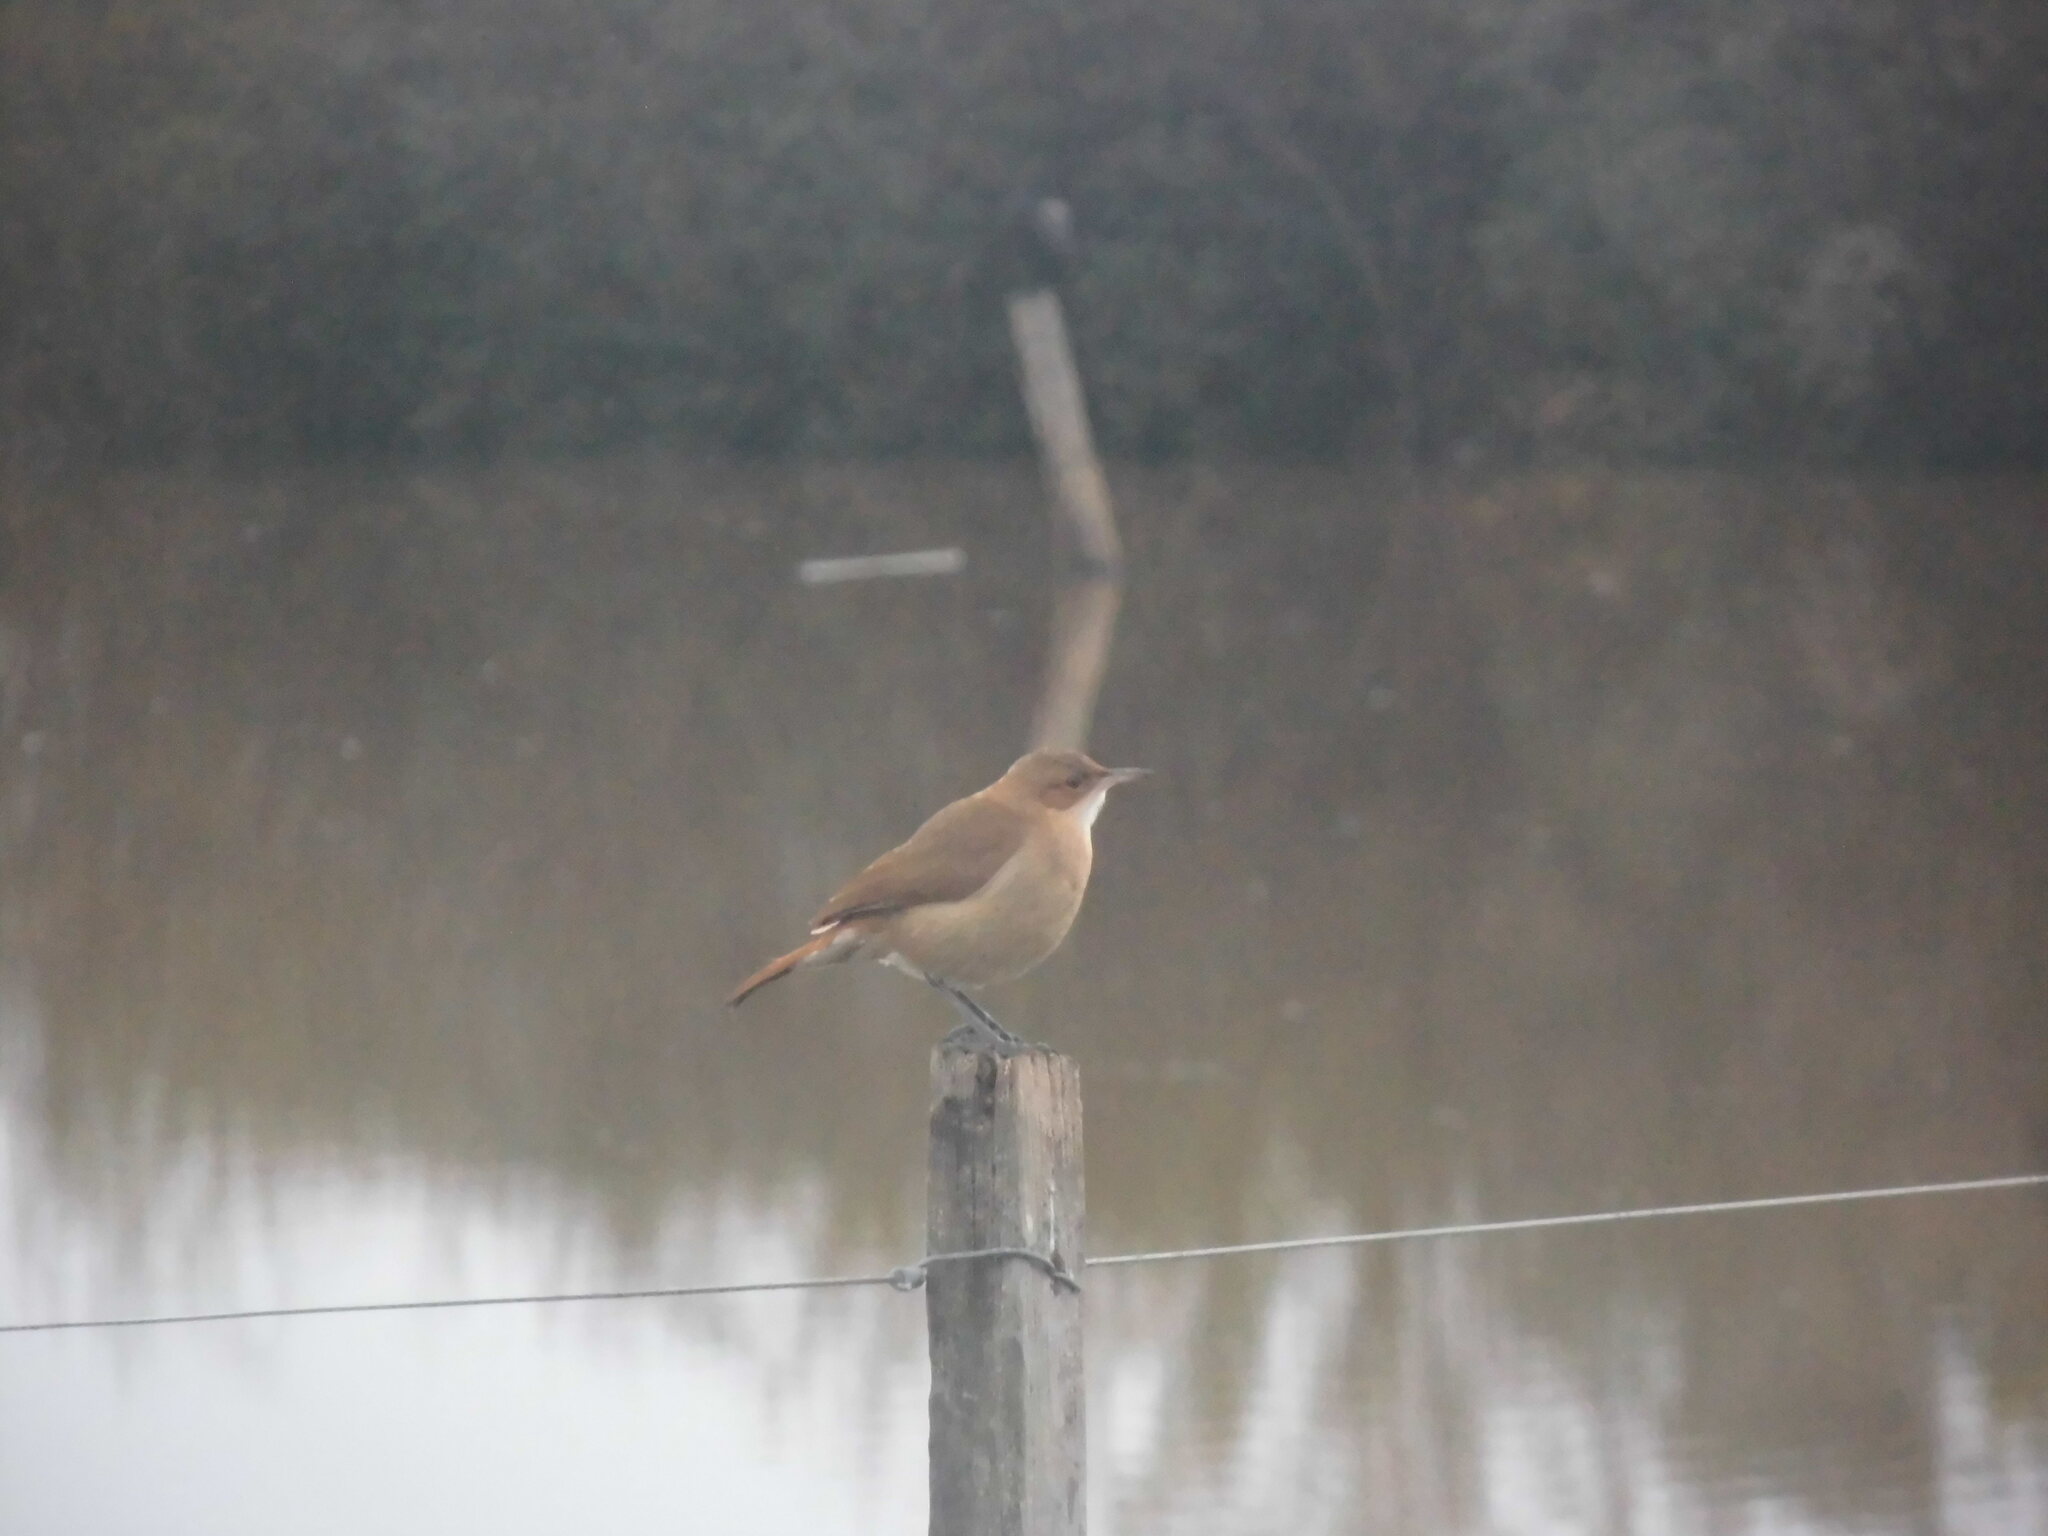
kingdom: Animalia
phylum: Chordata
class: Aves
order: Passeriformes
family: Furnariidae
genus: Furnarius
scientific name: Furnarius rufus
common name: Rufous hornero
